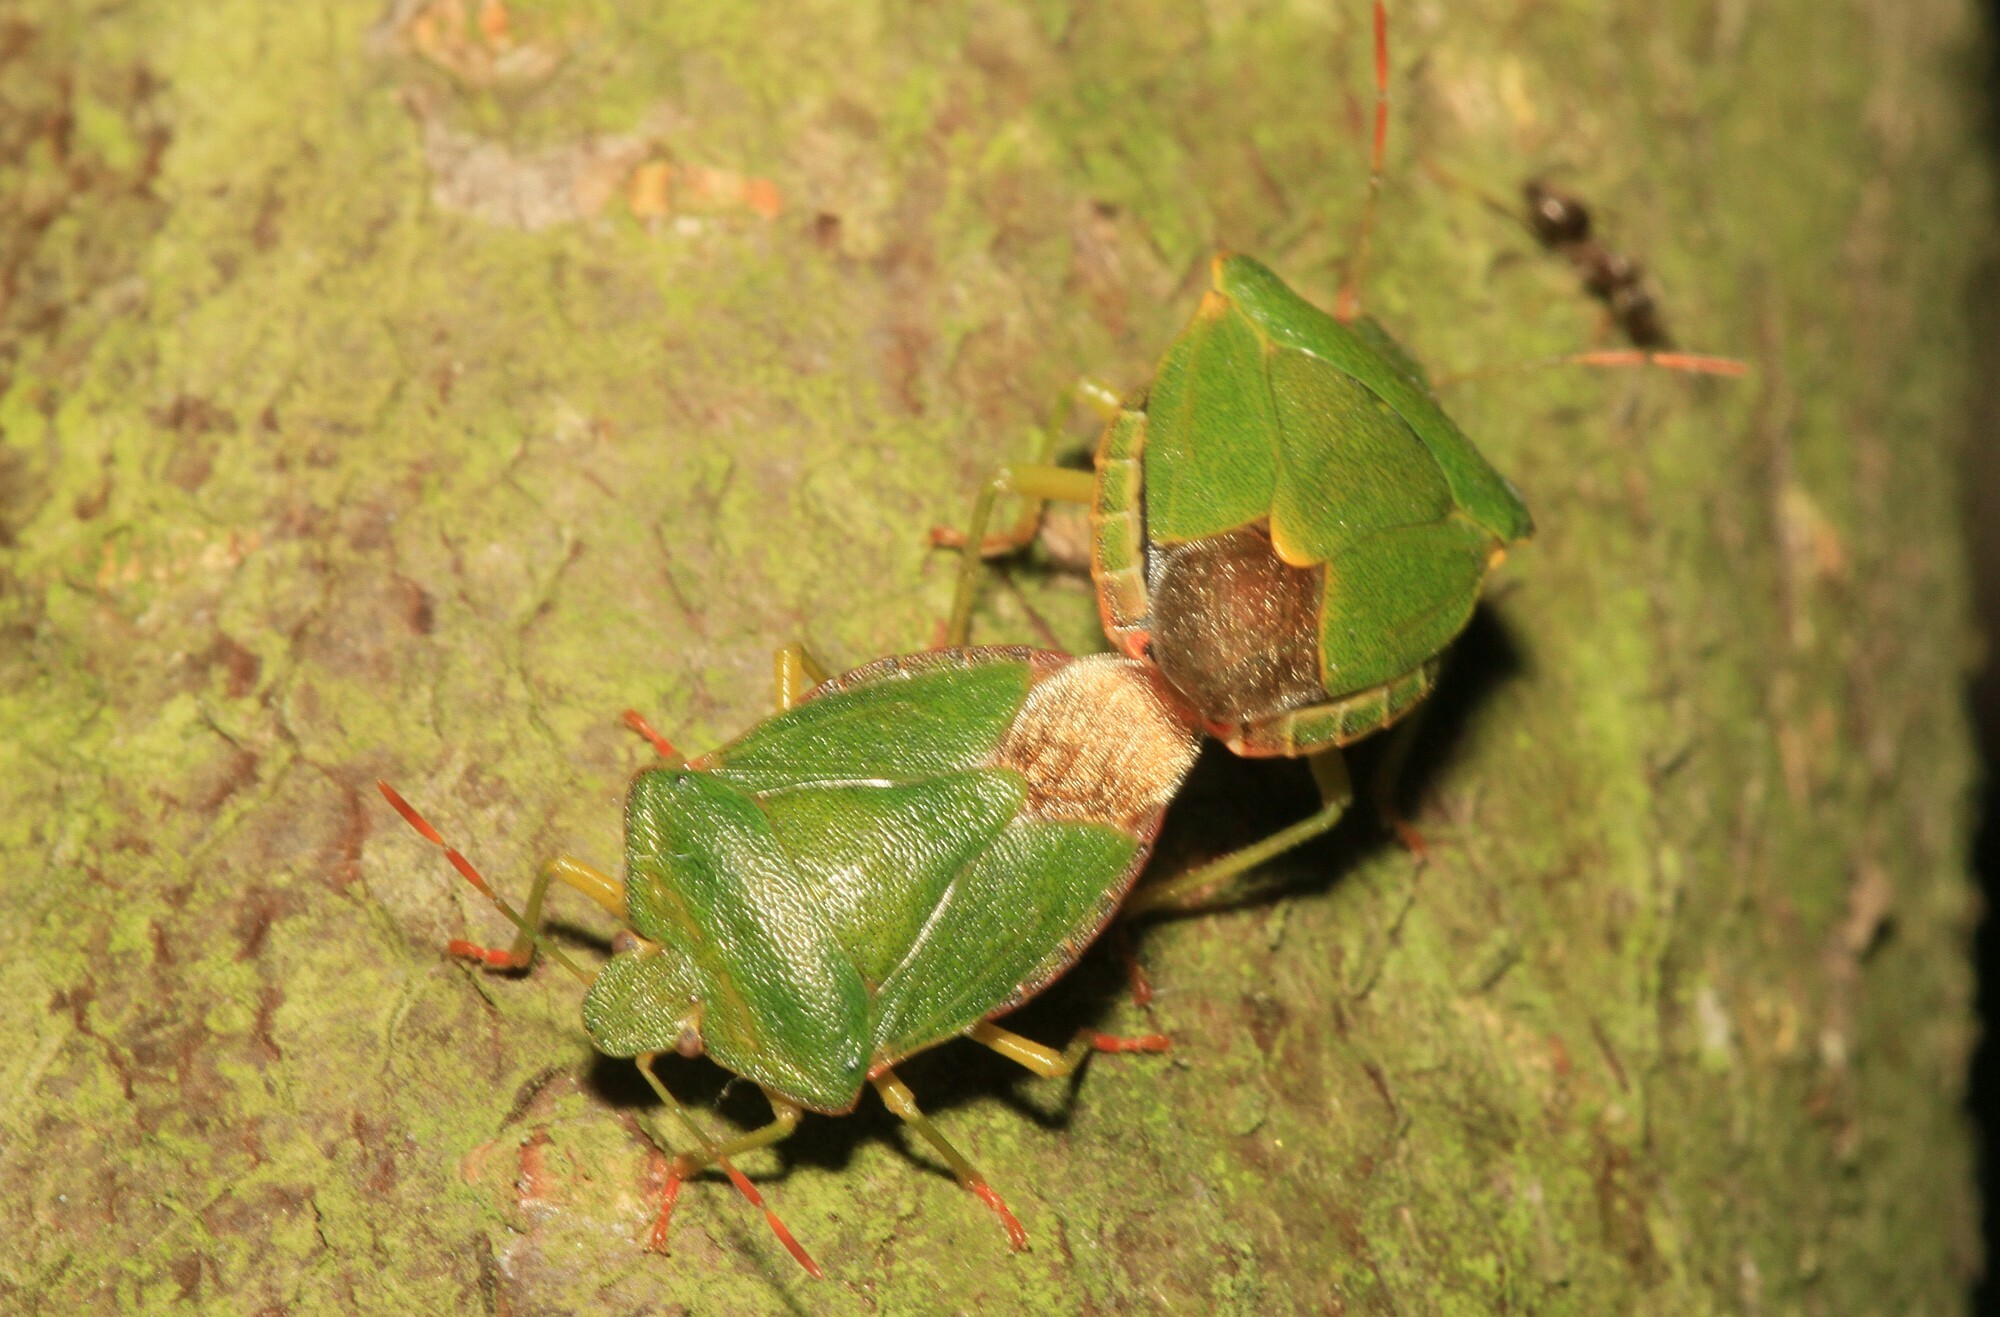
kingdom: Animalia
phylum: Arthropoda
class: Insecta
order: Hemiptera
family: Pentatomidae
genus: Palomena
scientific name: Palomena prasina
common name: Green shieldbug
